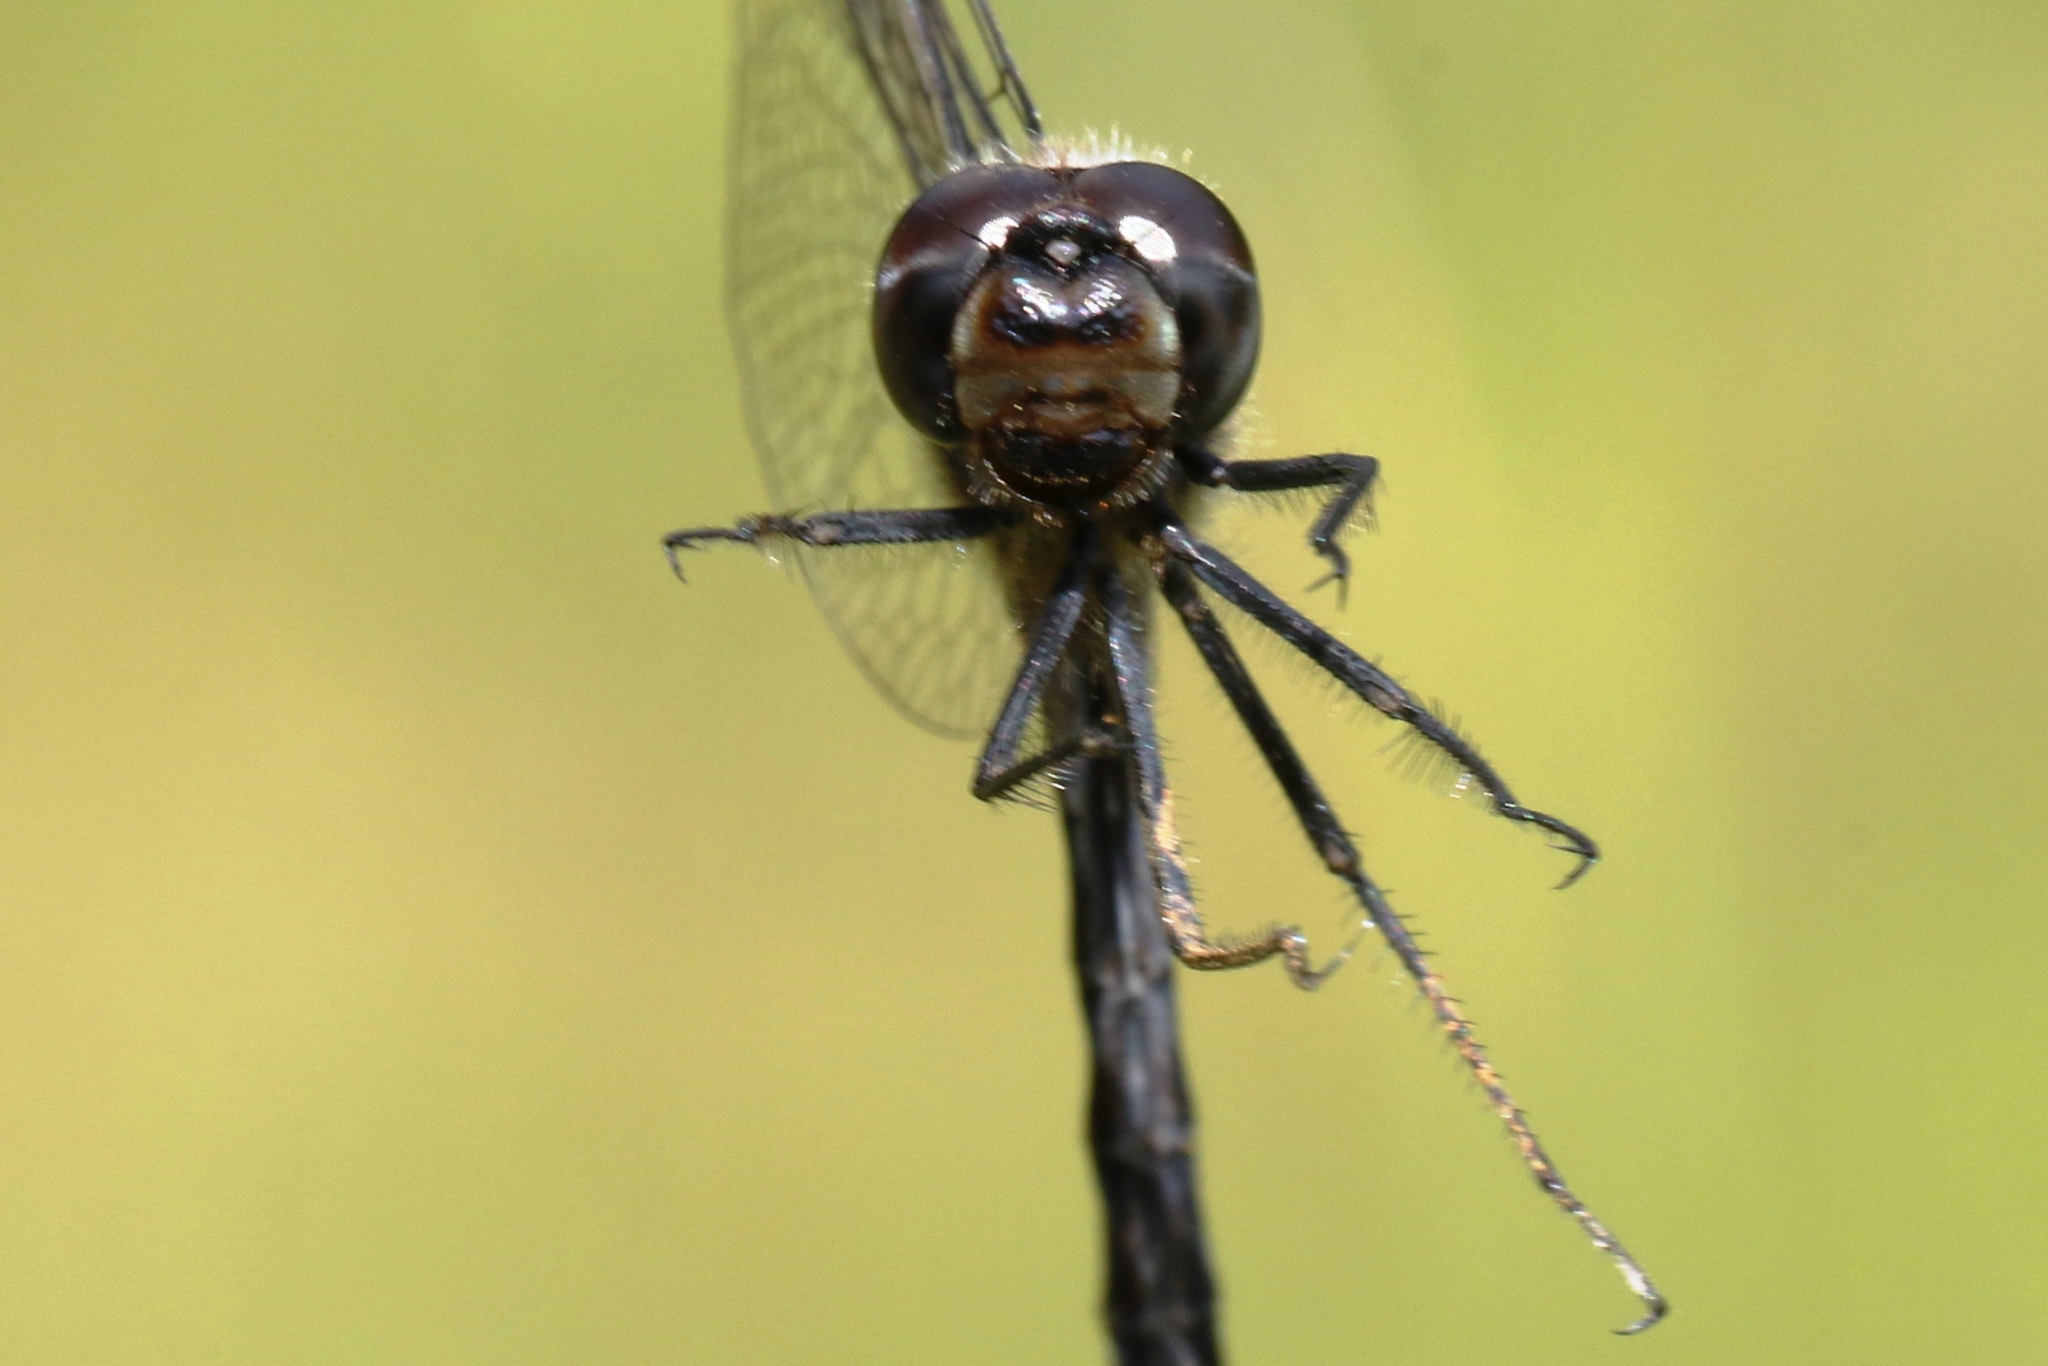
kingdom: Animalia
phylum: Arthropoda
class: Insecta
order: Odonata
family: Libellulidae
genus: Sympetrum
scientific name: Sympetrum danae
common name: Black darter
